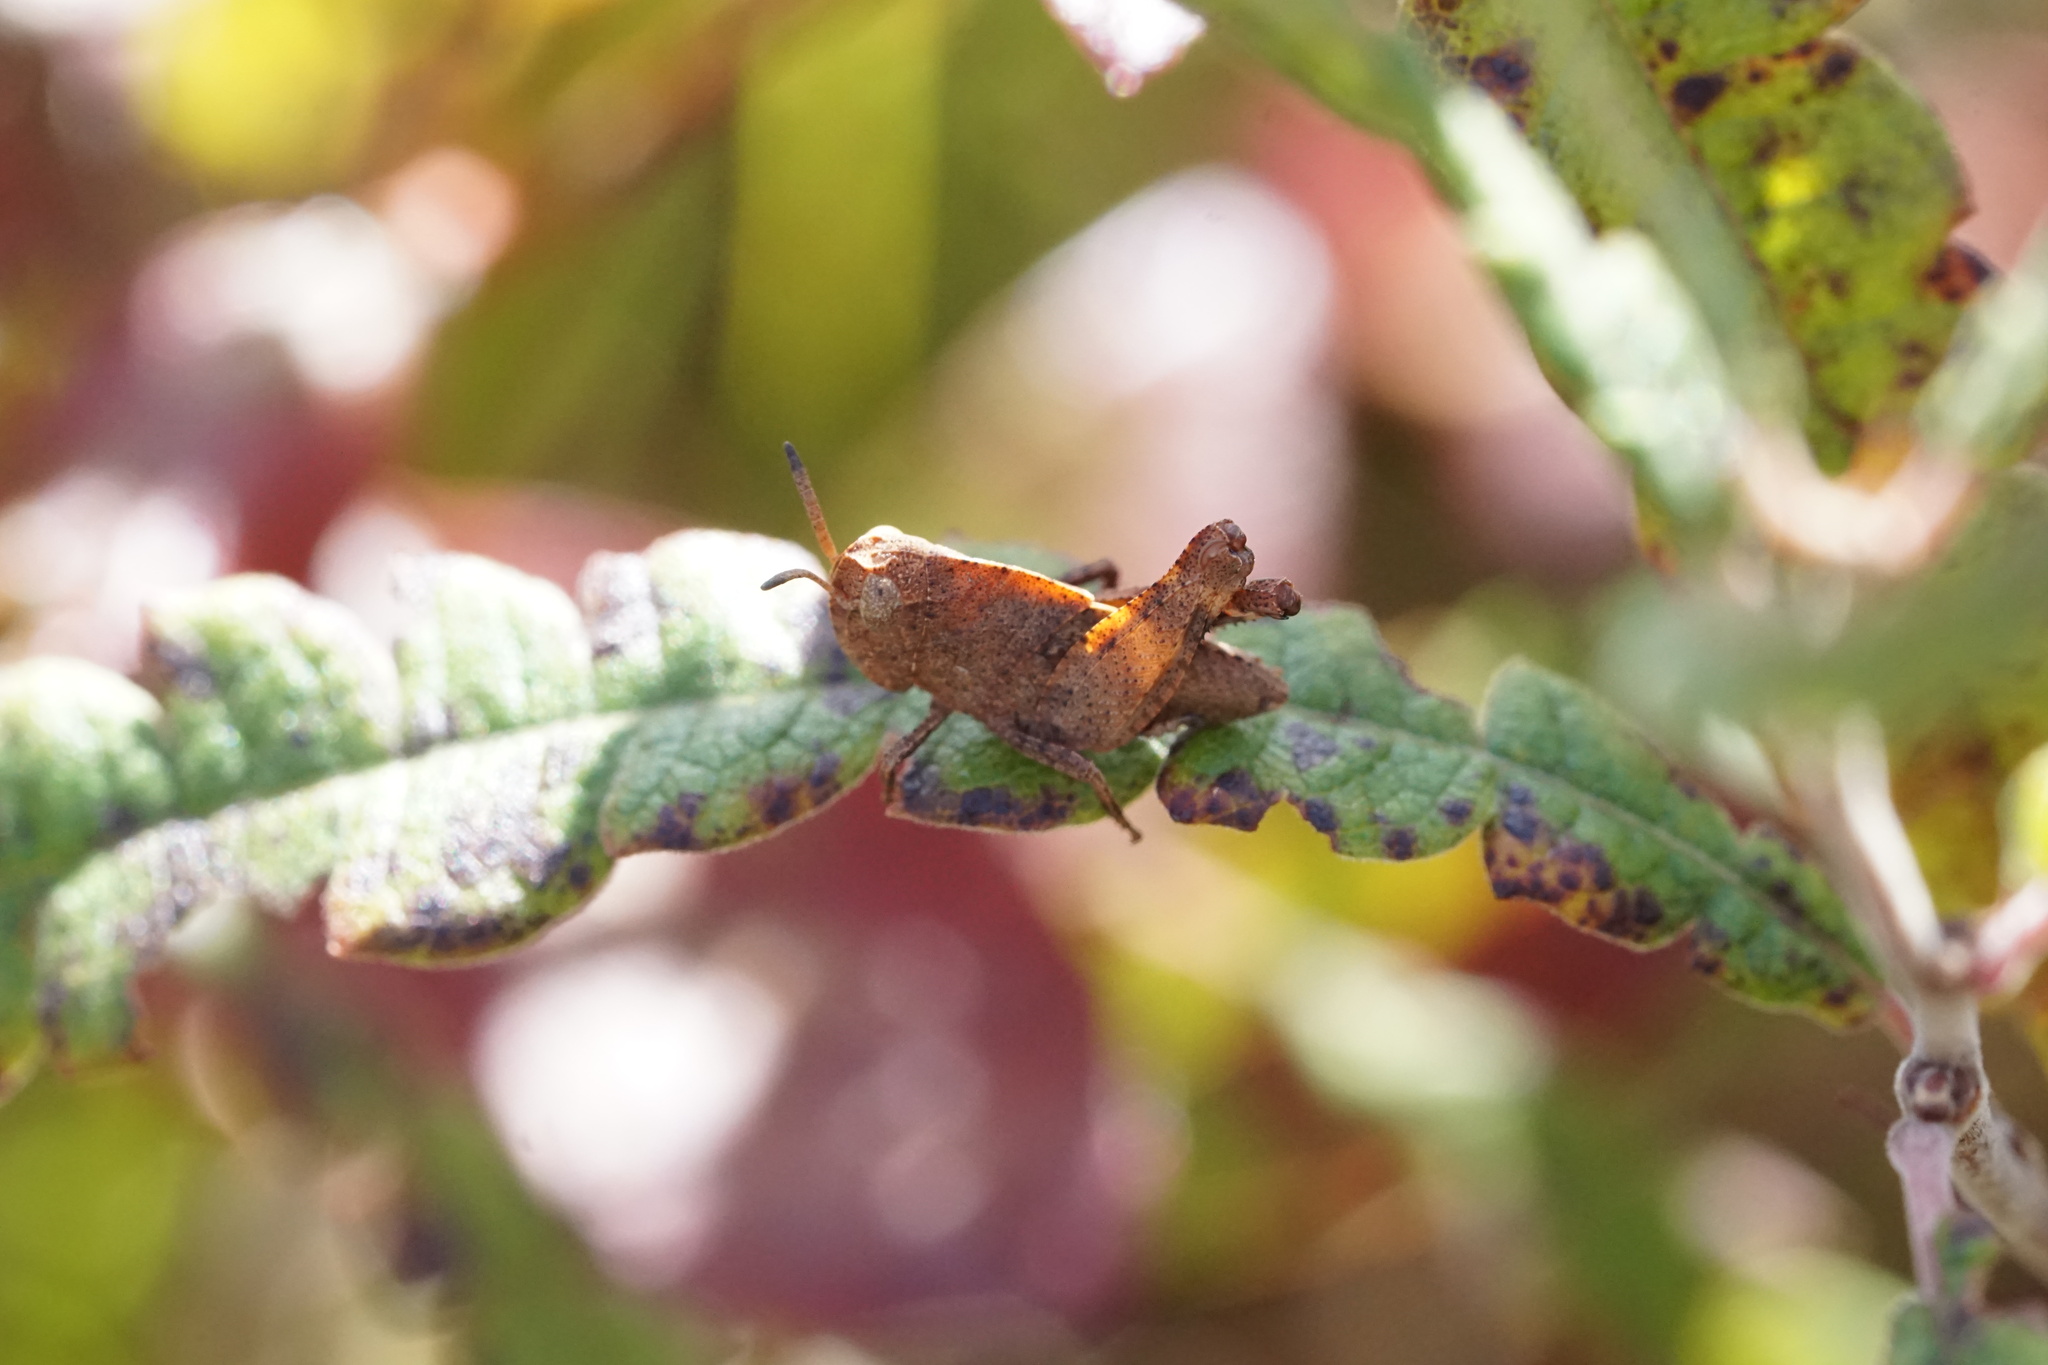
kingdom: Animalia
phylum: Arthropoda
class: Insecta
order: Orthoptera
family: Acrididae
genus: Arphia
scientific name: Arphia sulphurea
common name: Spring yellow-winged locust
